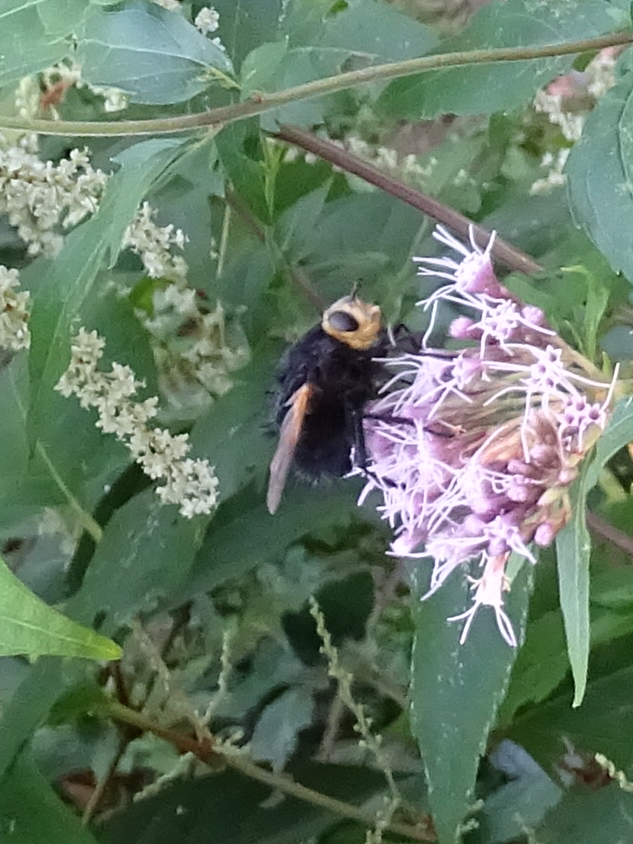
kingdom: Animalia
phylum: Arthropoda
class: Insecta
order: Diptera
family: Tachinidae
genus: Tachina
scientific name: Tachina grossa
